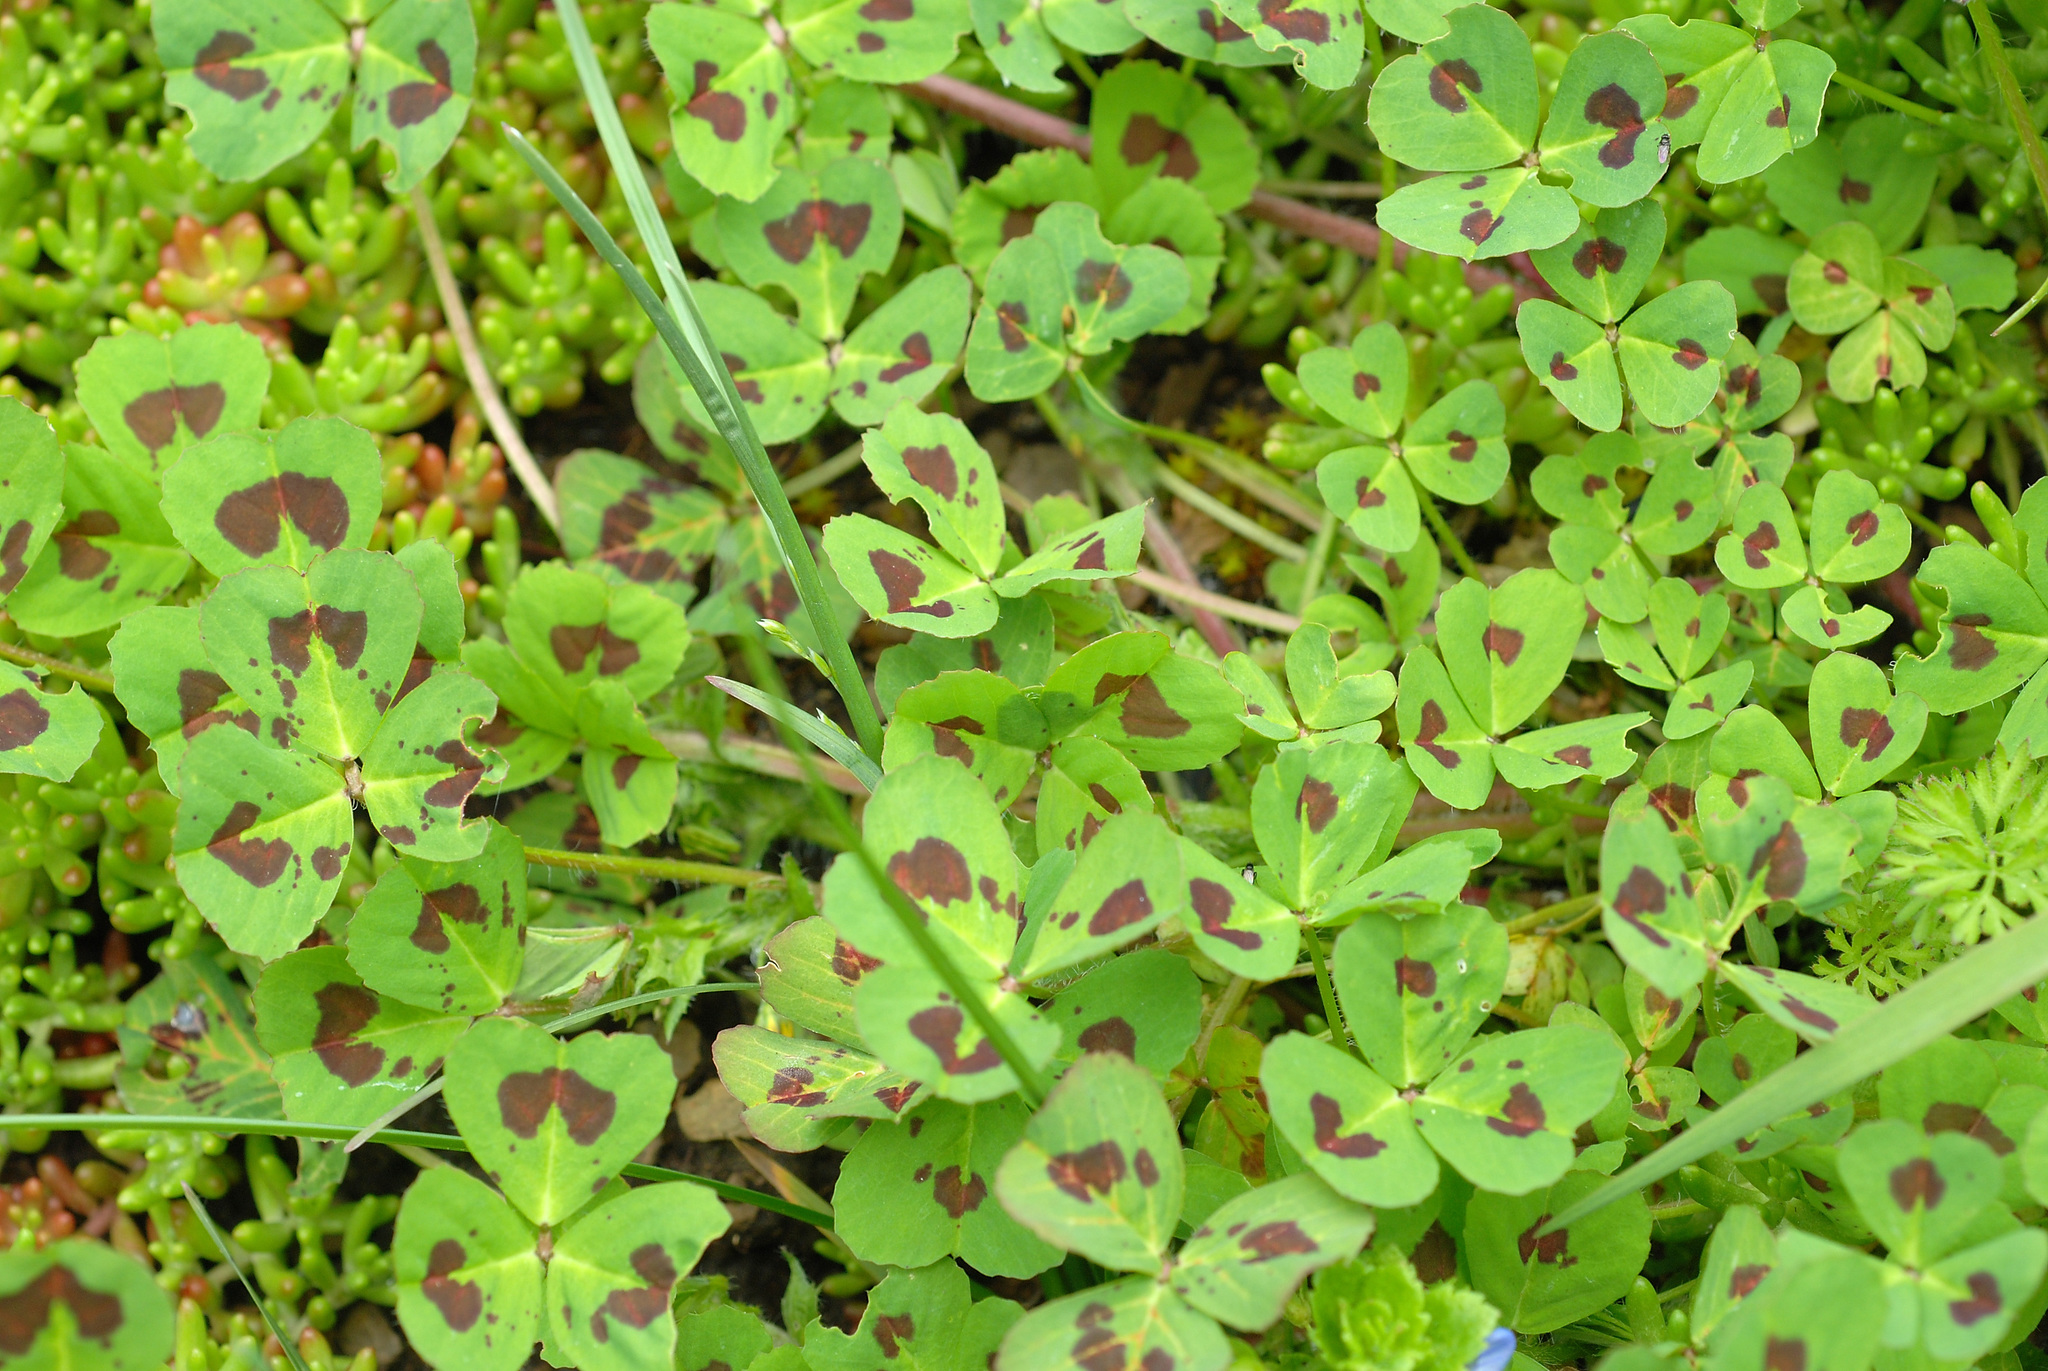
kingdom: Plantae
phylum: Tracheophyta
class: Magnoliopsida
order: Fabales
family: Fabaceae
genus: Medicago
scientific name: Medicago arabica
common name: Spotted medick
